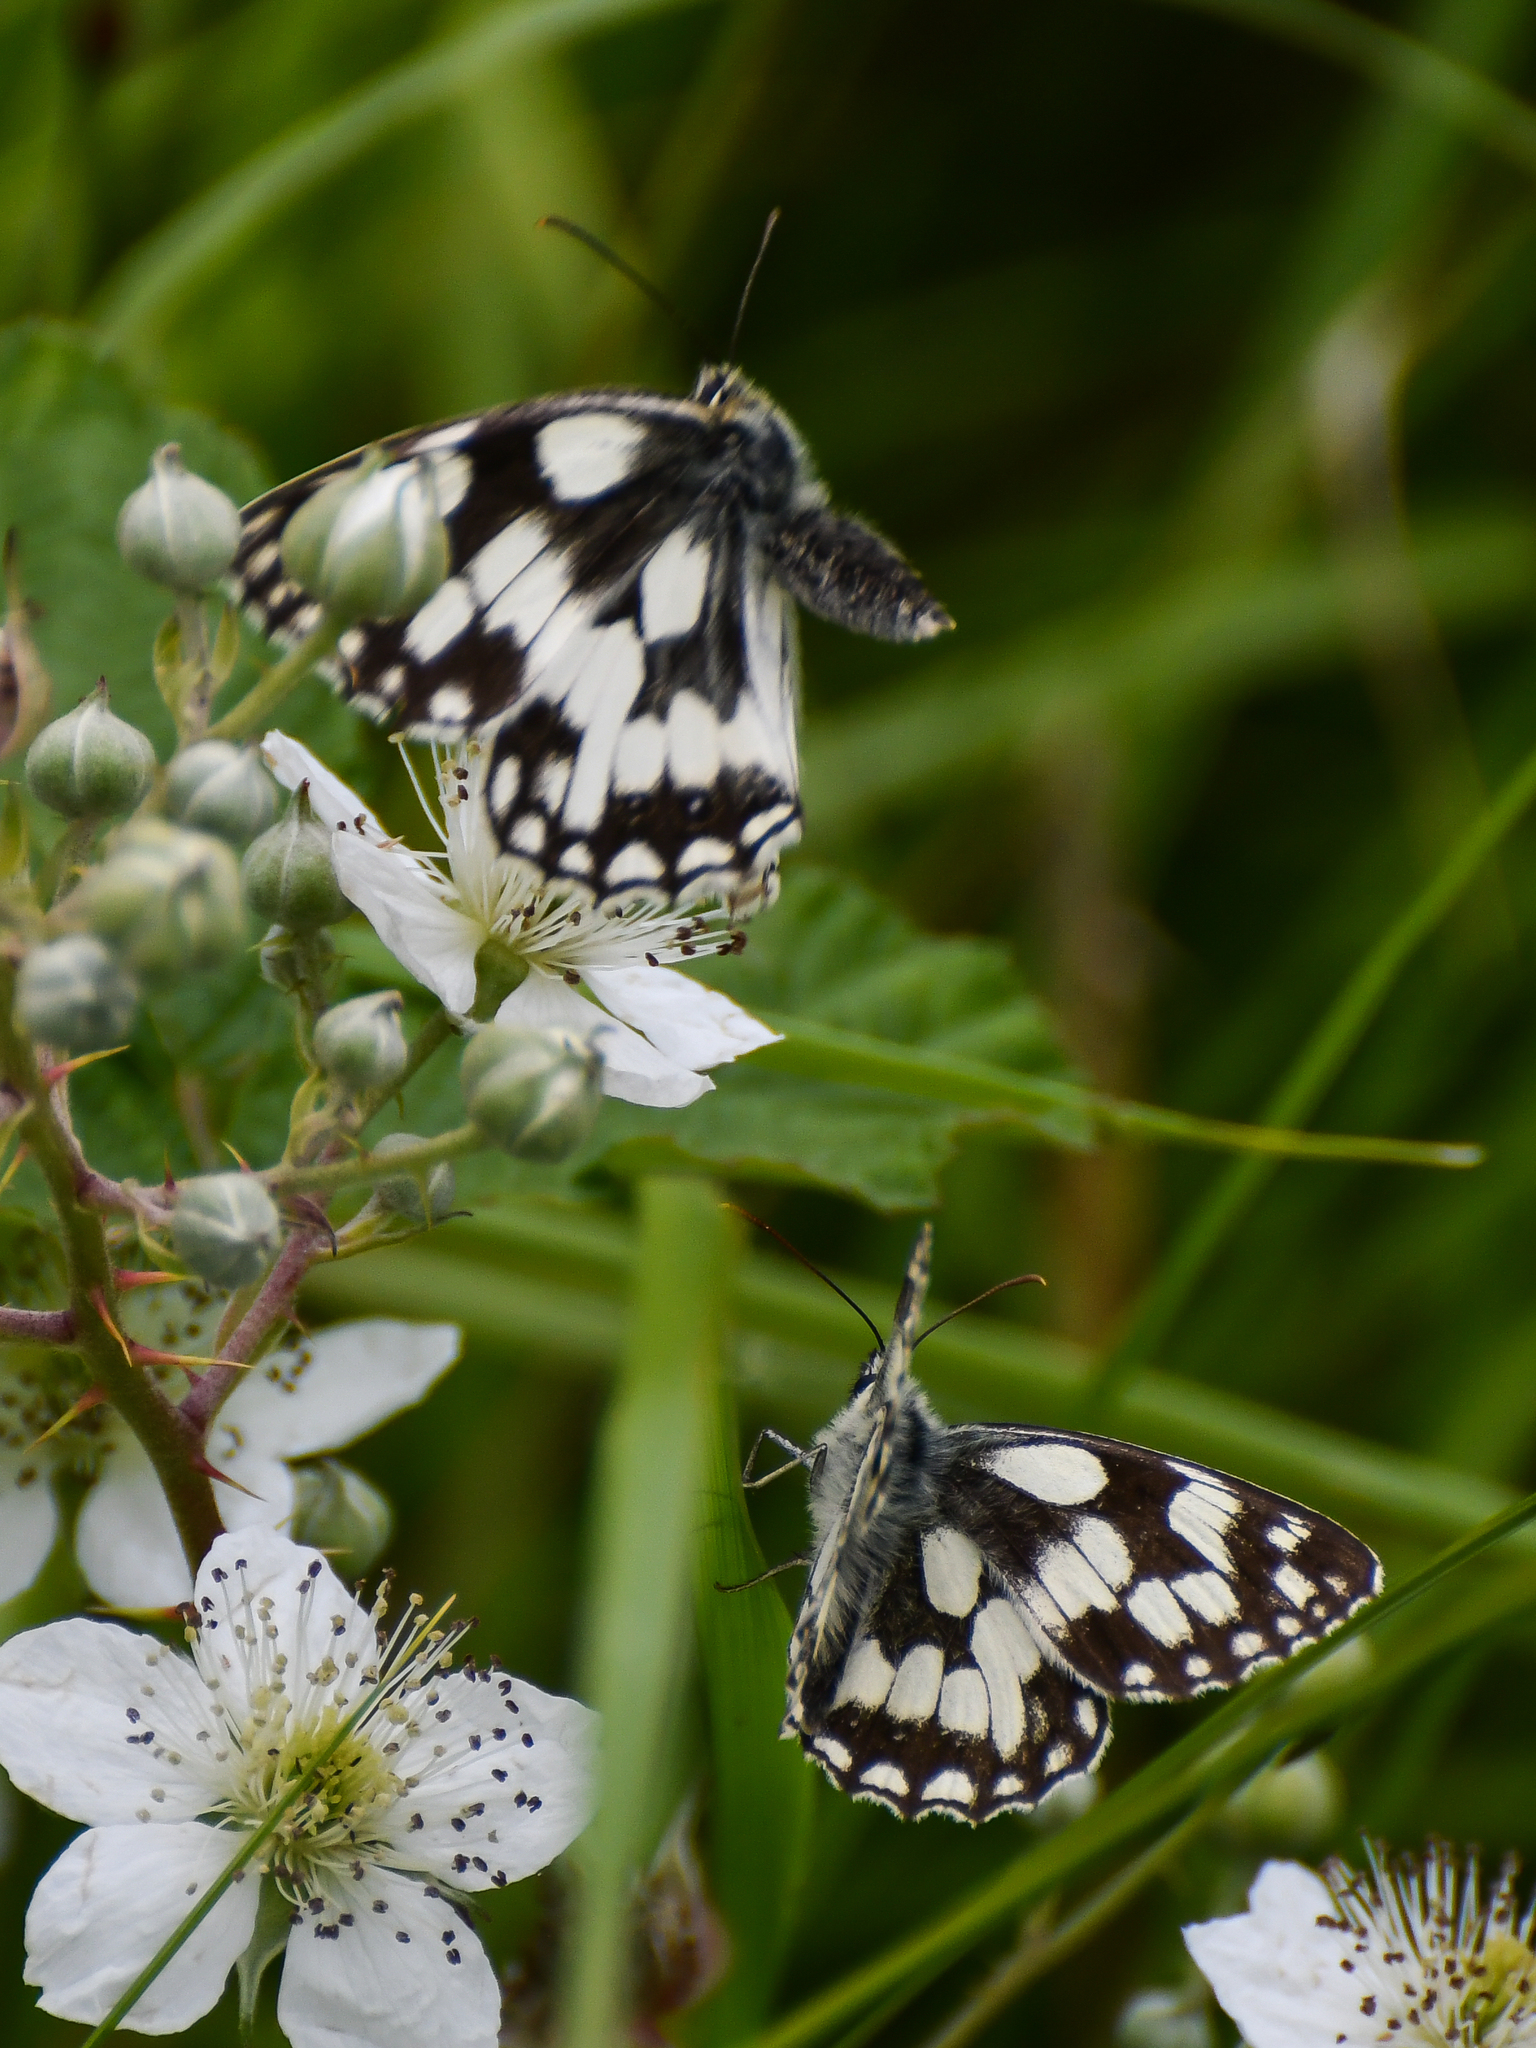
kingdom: Animalia
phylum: Arthropoda
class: Insecta
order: Lepidoptera
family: Nymphalidae
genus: Melanargia
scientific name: Melanargia galathea
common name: Marbled white
